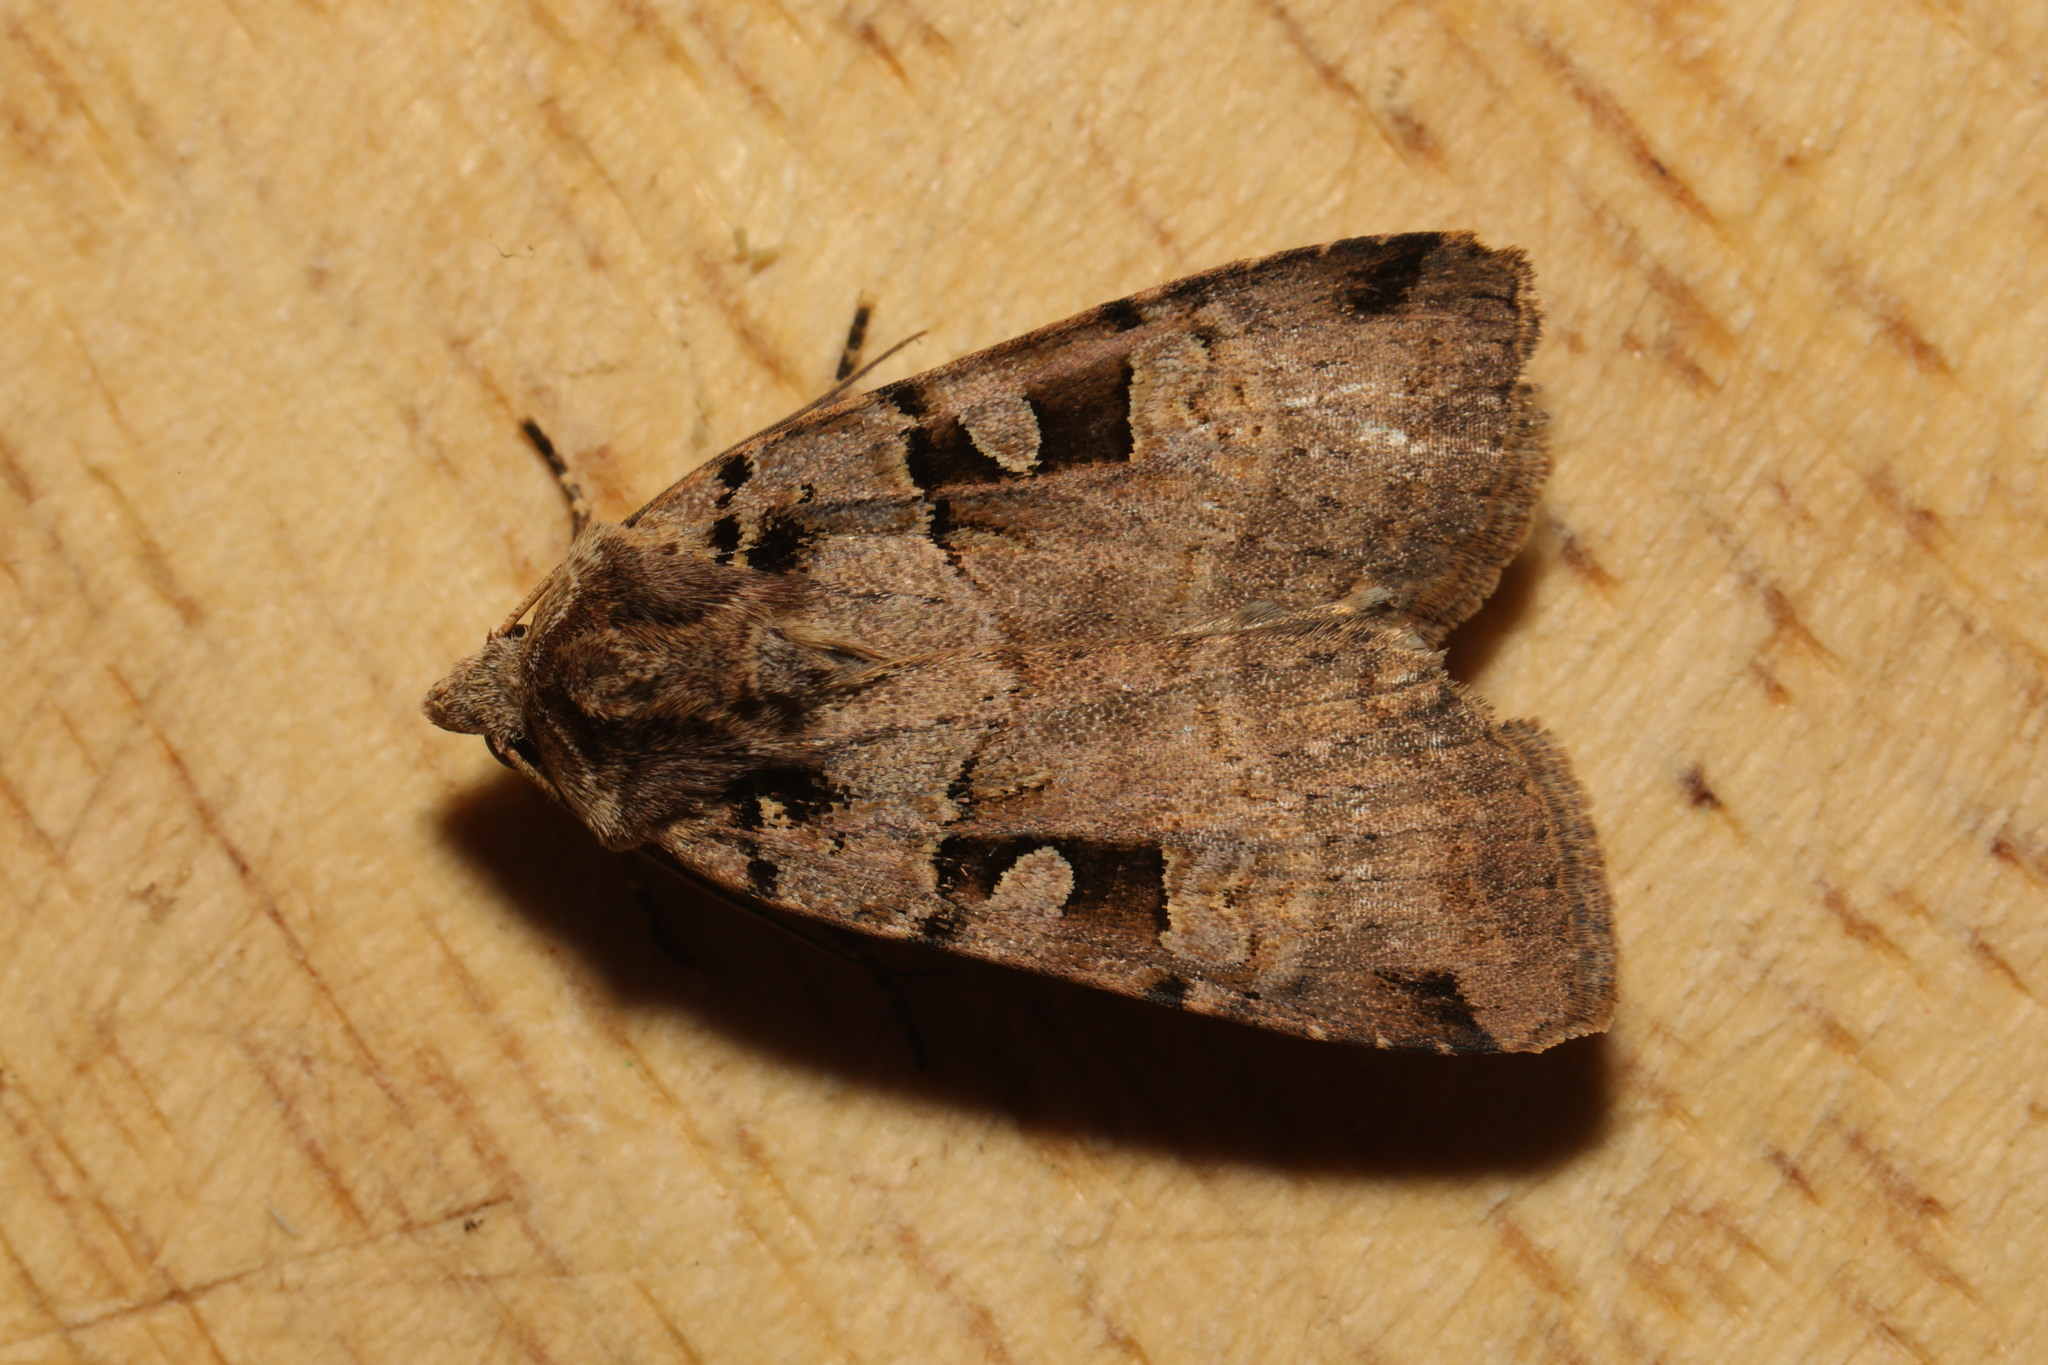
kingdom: Animalia
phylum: Arthropoda
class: Insecta
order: Lepidoptera
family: Noctuidae
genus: Xestia
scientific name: Xestia triangulum
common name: Double square-spot
